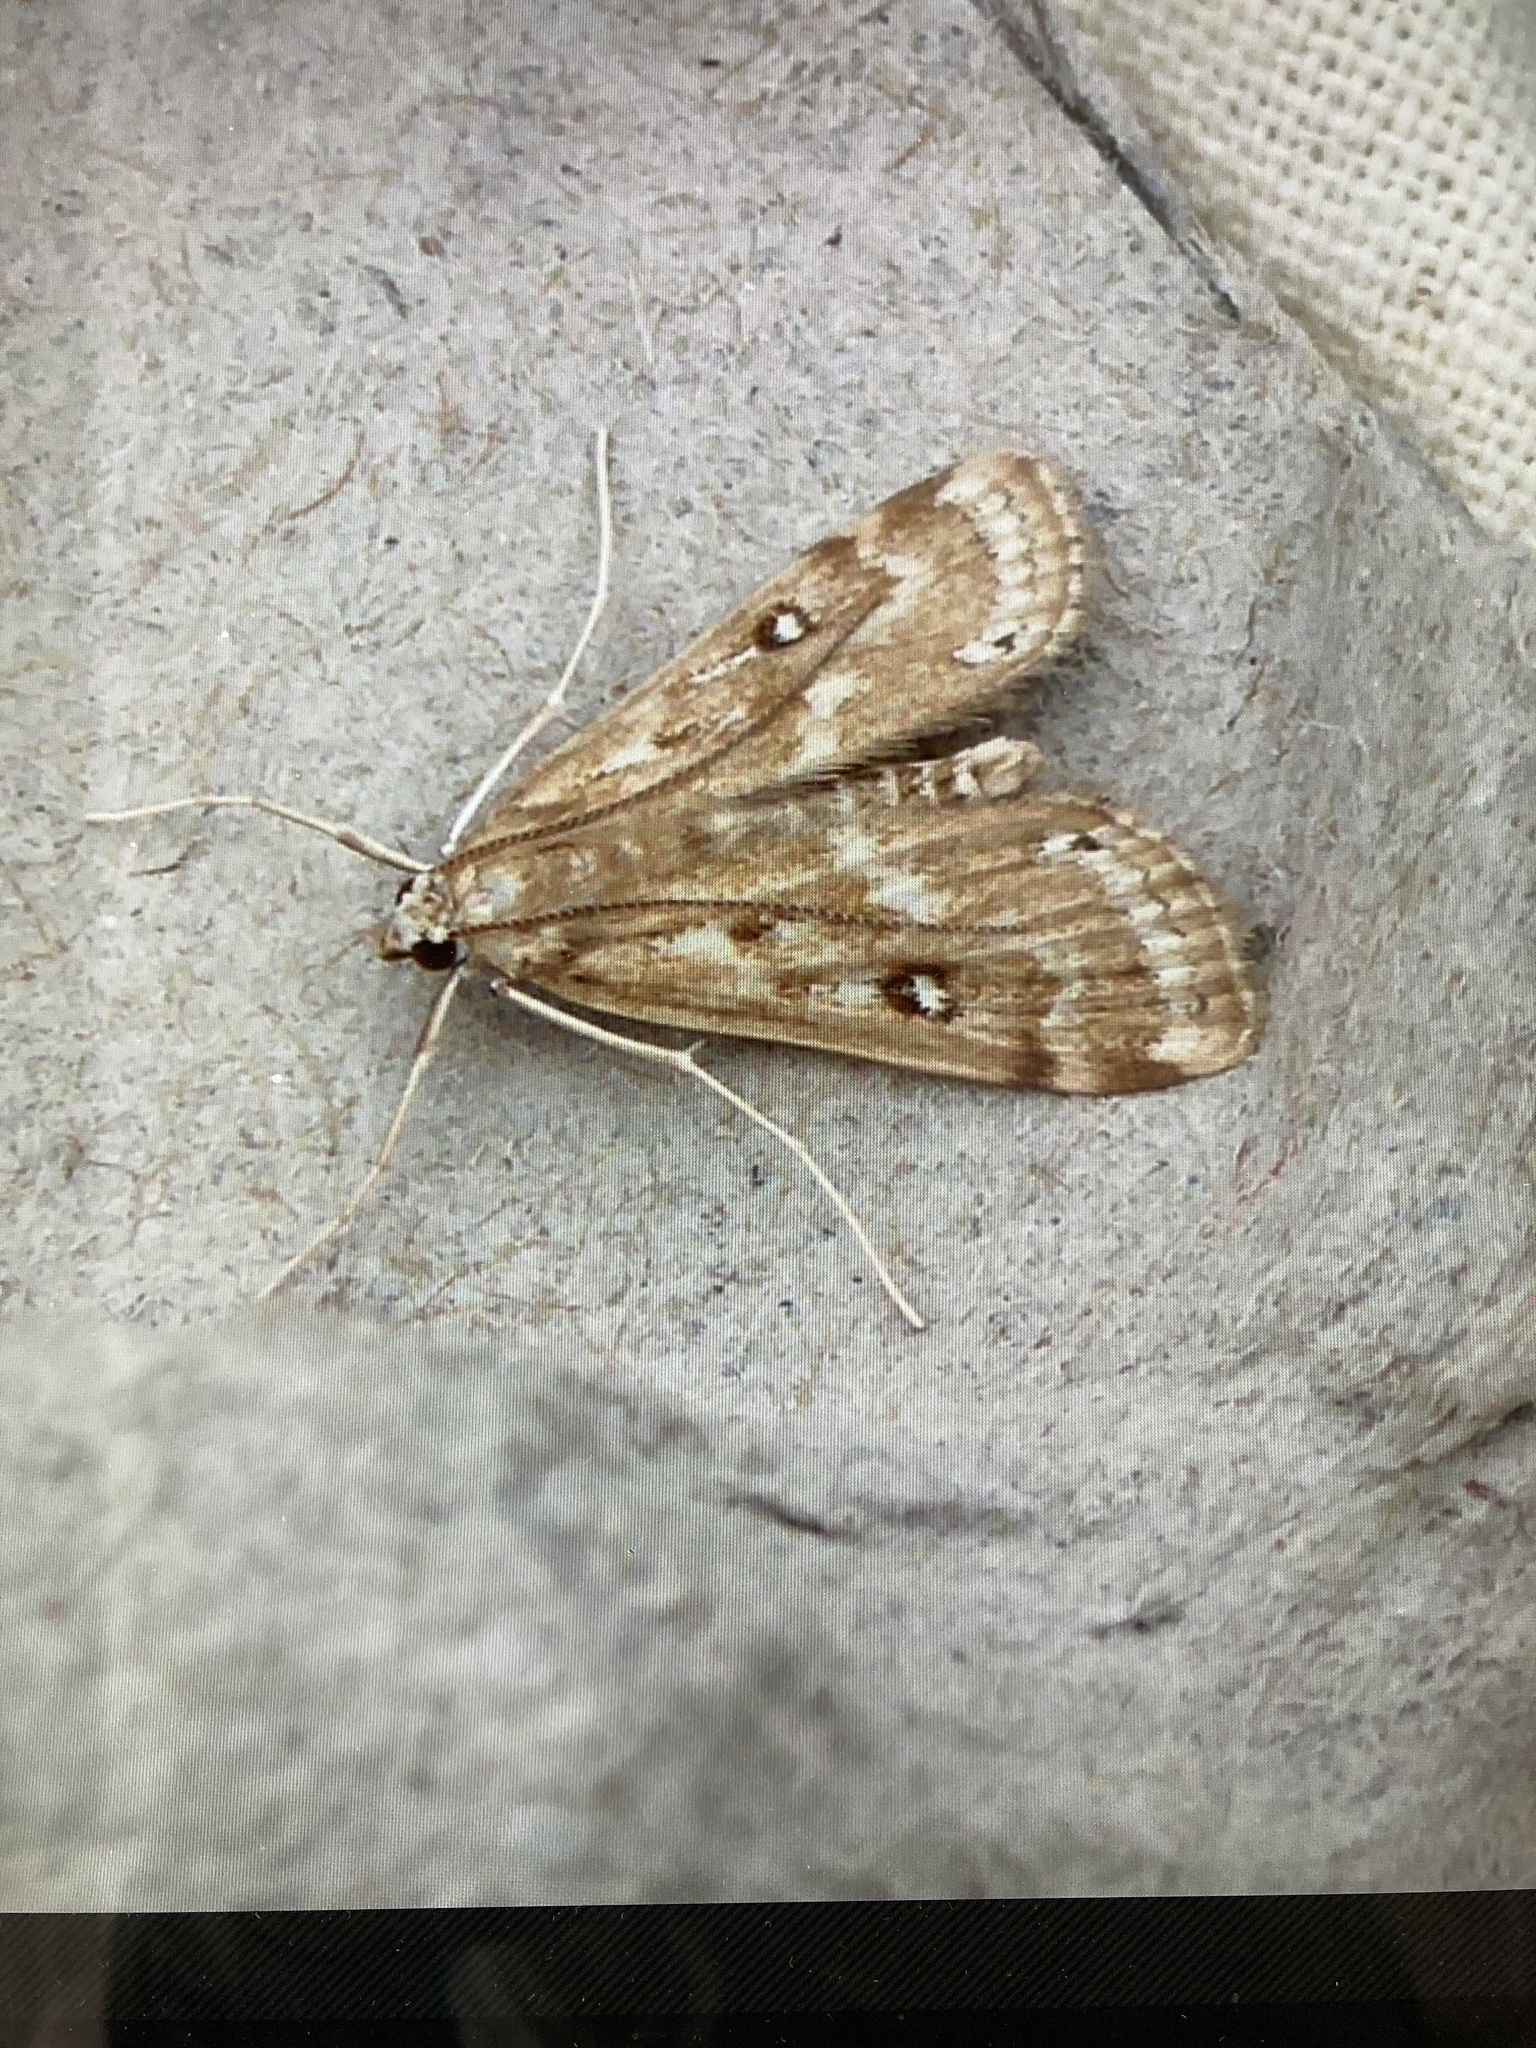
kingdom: Animalia
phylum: Arthropoda
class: Insecta
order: Lepidoptera
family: Crambidae
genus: Parapoynx
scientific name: Parapoynx stratiotata
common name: Ringed china-mark
